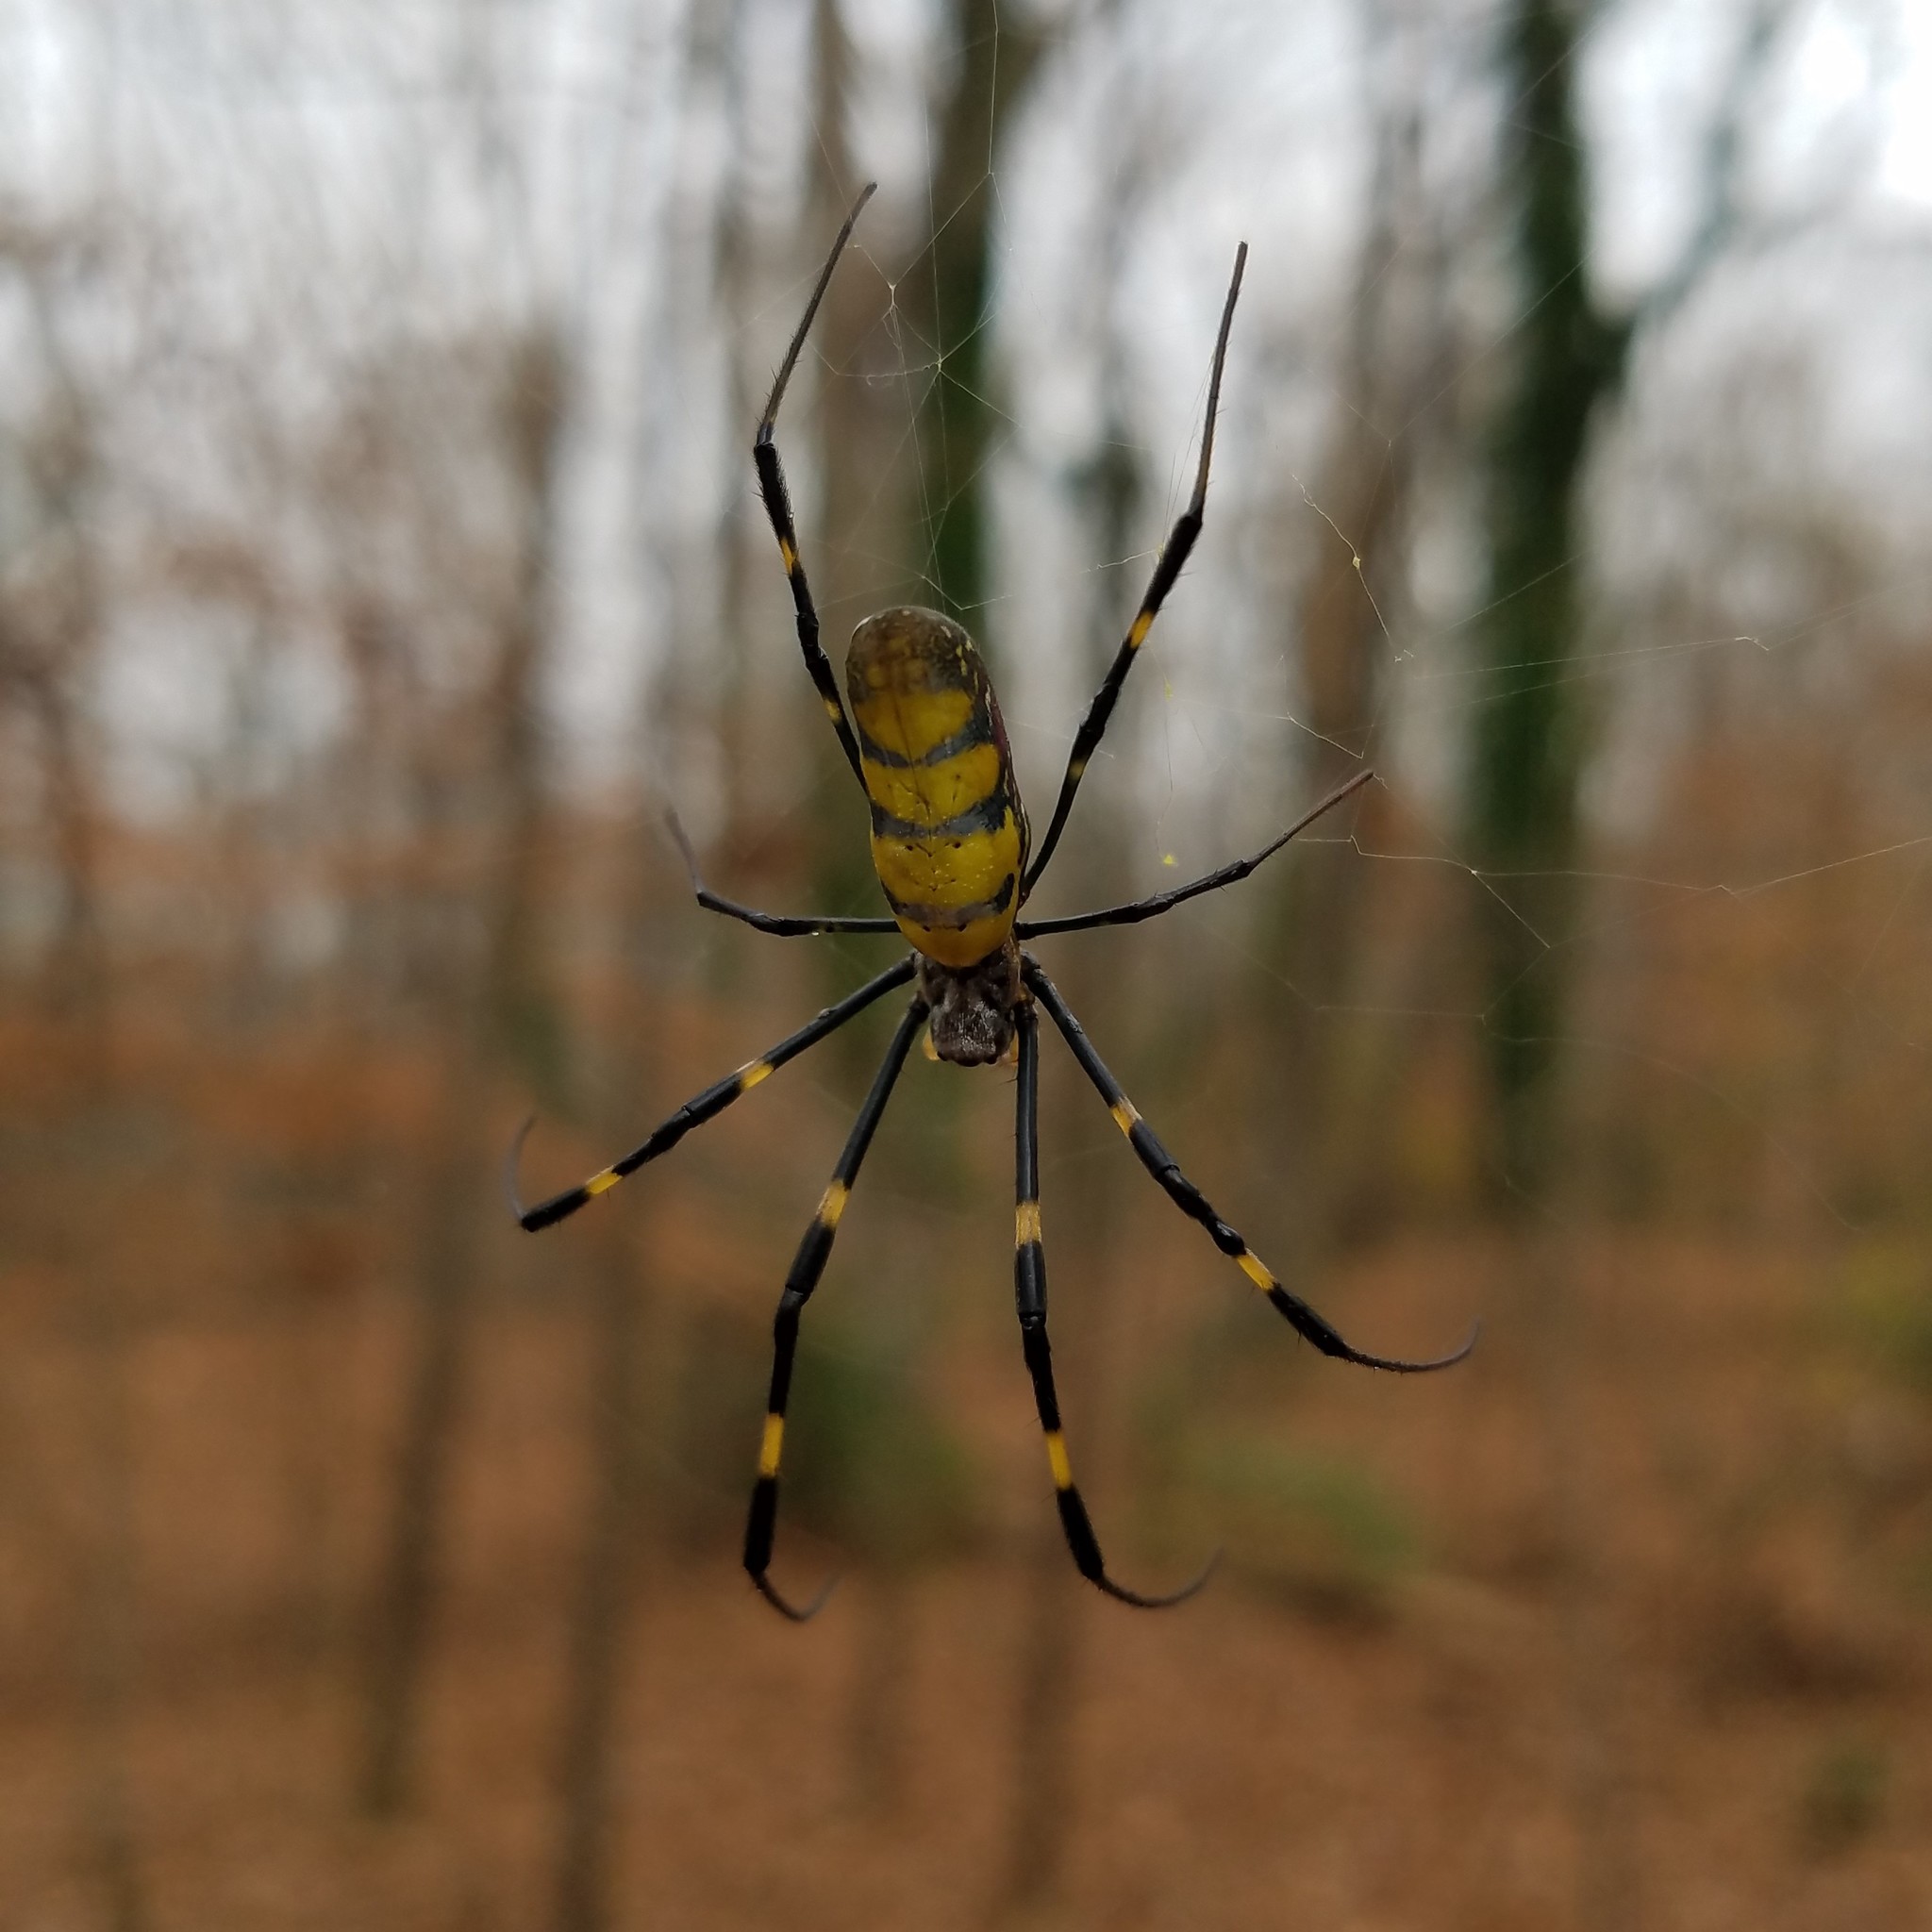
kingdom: Animalia
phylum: Arthropoda
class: Arachnida
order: Araneae
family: Araneidae
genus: Trichonephila
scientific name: Trichonephila clavata
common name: Jorō spider
